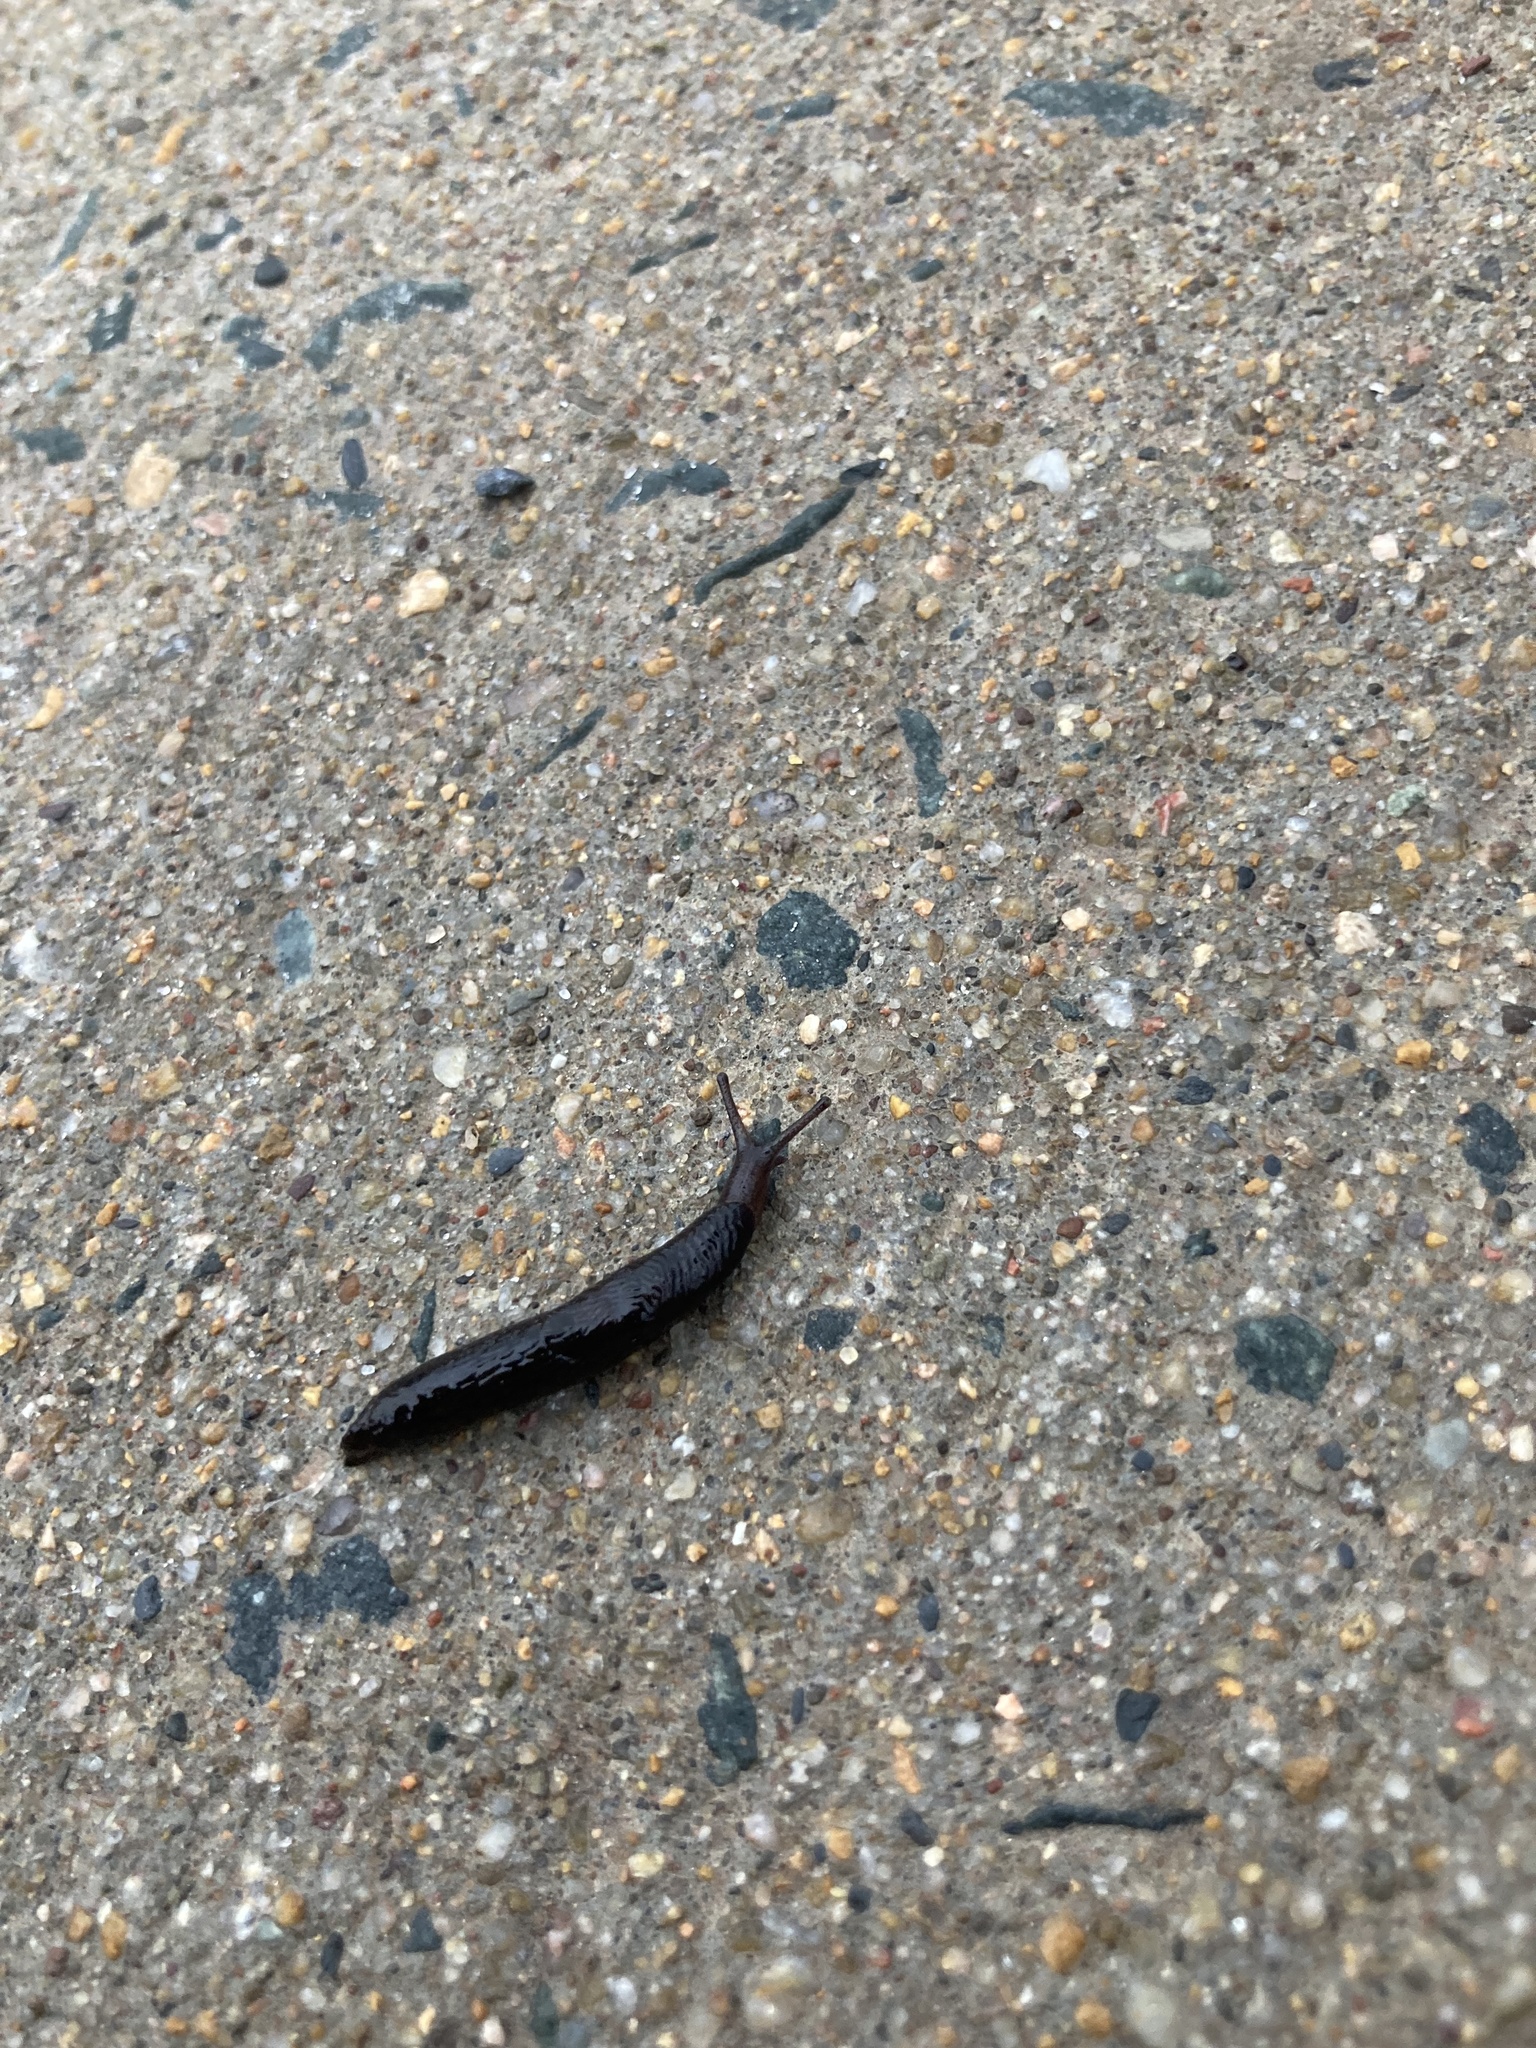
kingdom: Animalia
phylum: Mollusca
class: Gastropoda
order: Stylommatophora
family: Agriolimacidae
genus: Deroceras
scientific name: Deroceras laeve
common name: Marsh slug
